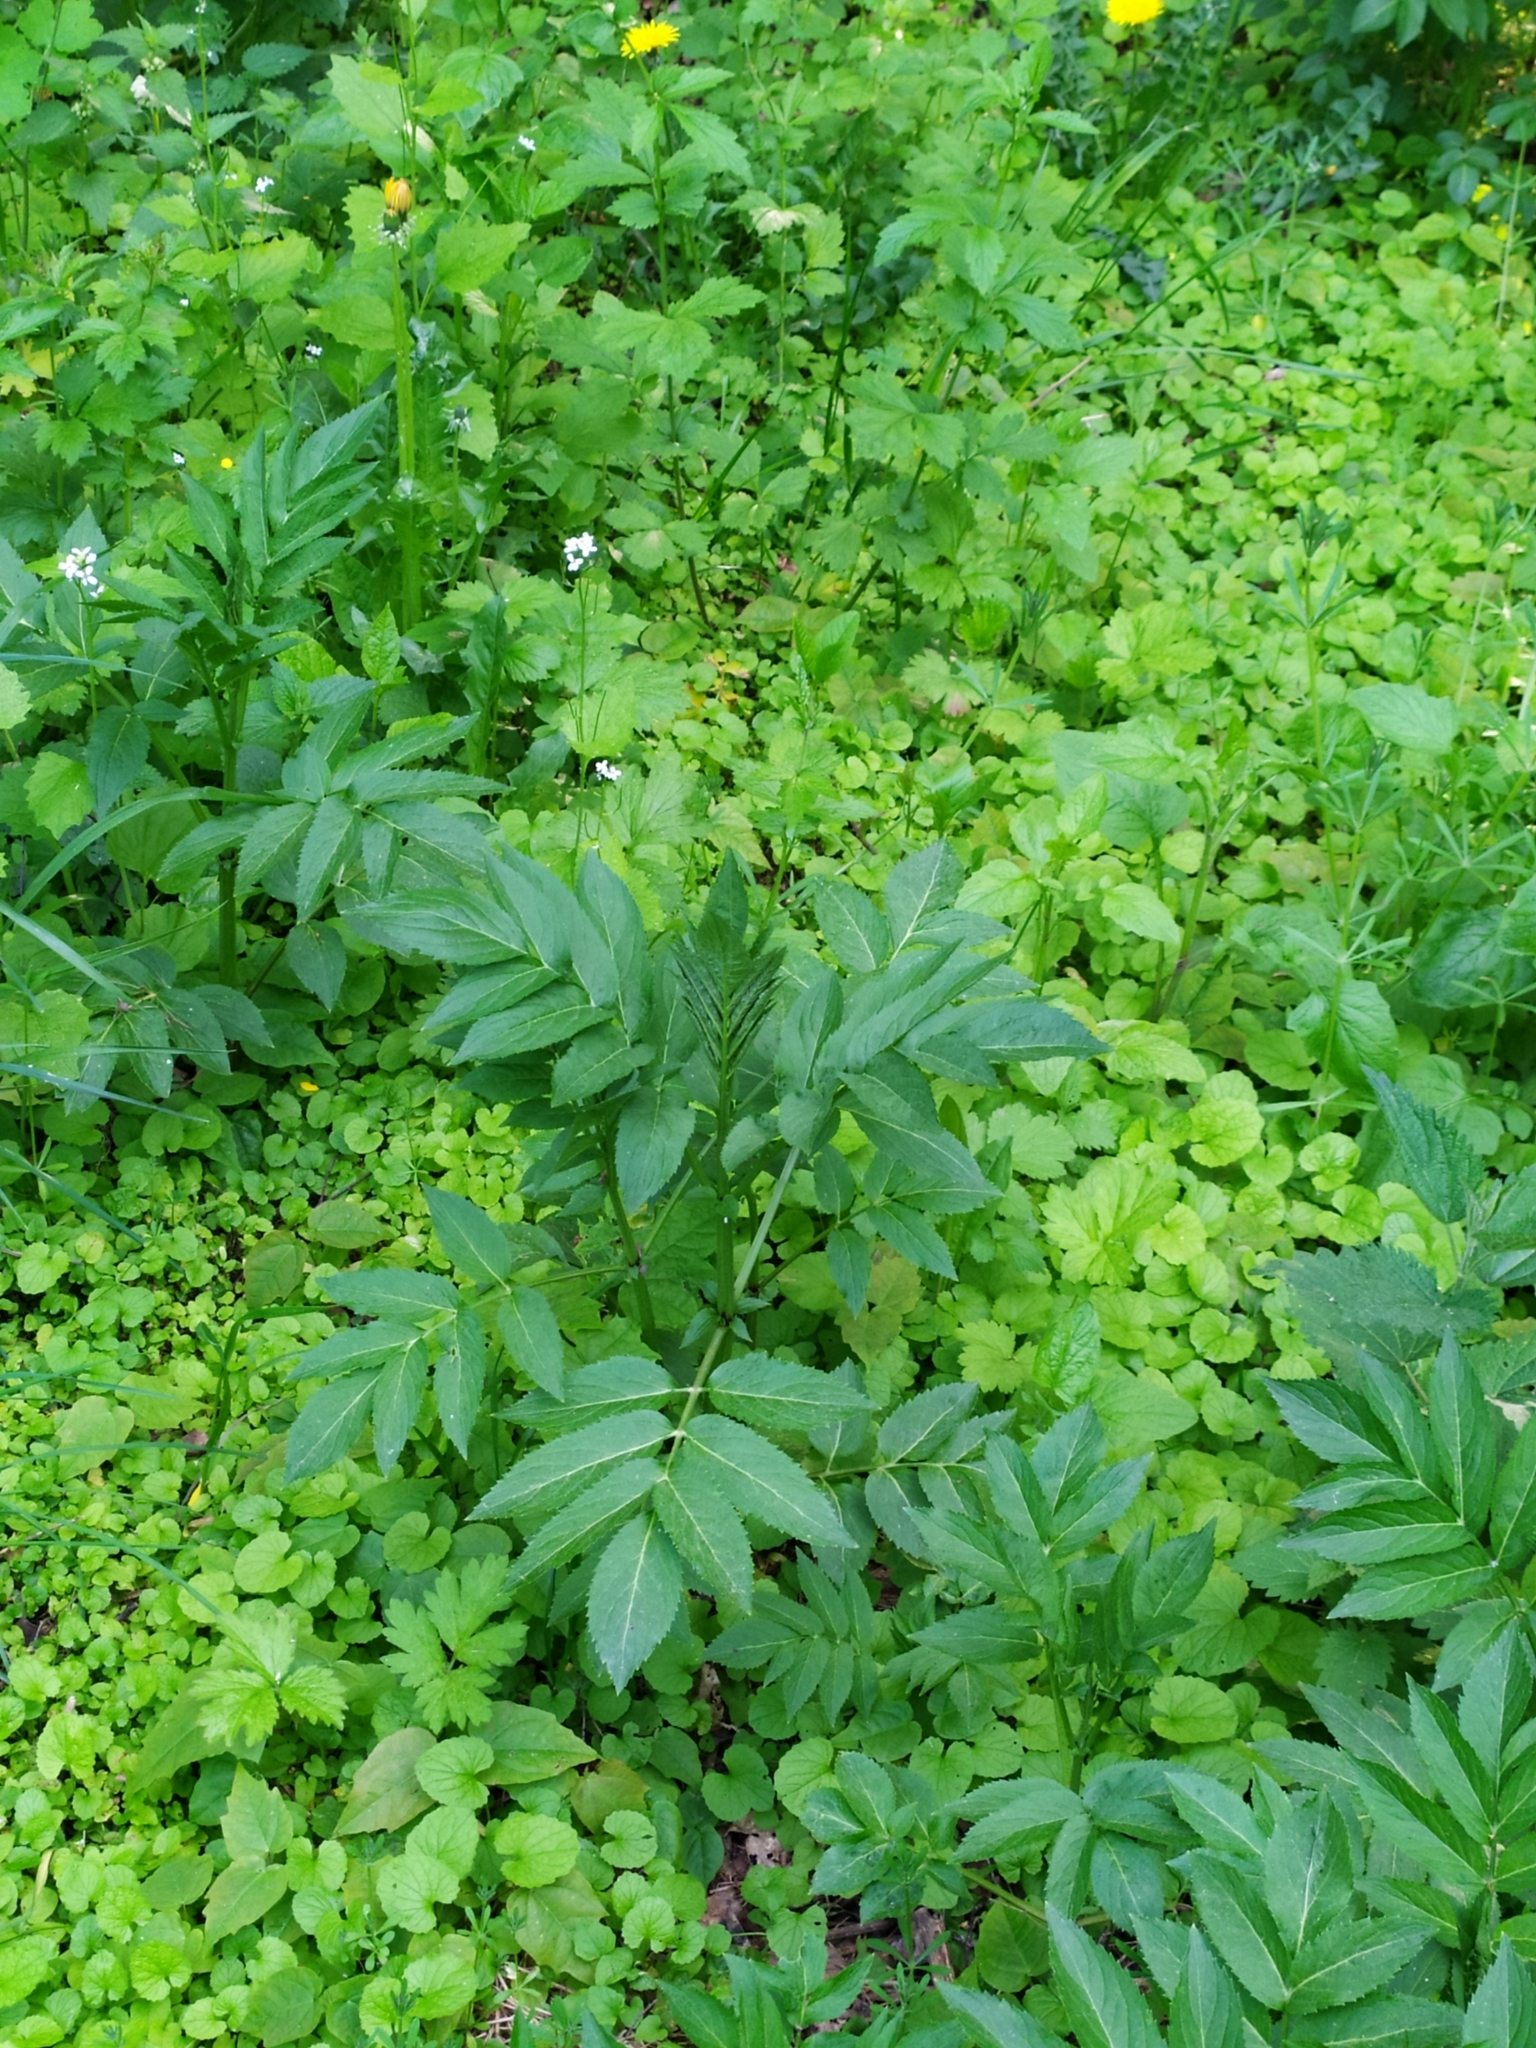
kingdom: Plantae
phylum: Tracheophyta
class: Magnoliopsida
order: Dipsacales
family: Viburnaceae
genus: Sambucus
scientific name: Sambucus ebulus
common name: Dwarf elder
